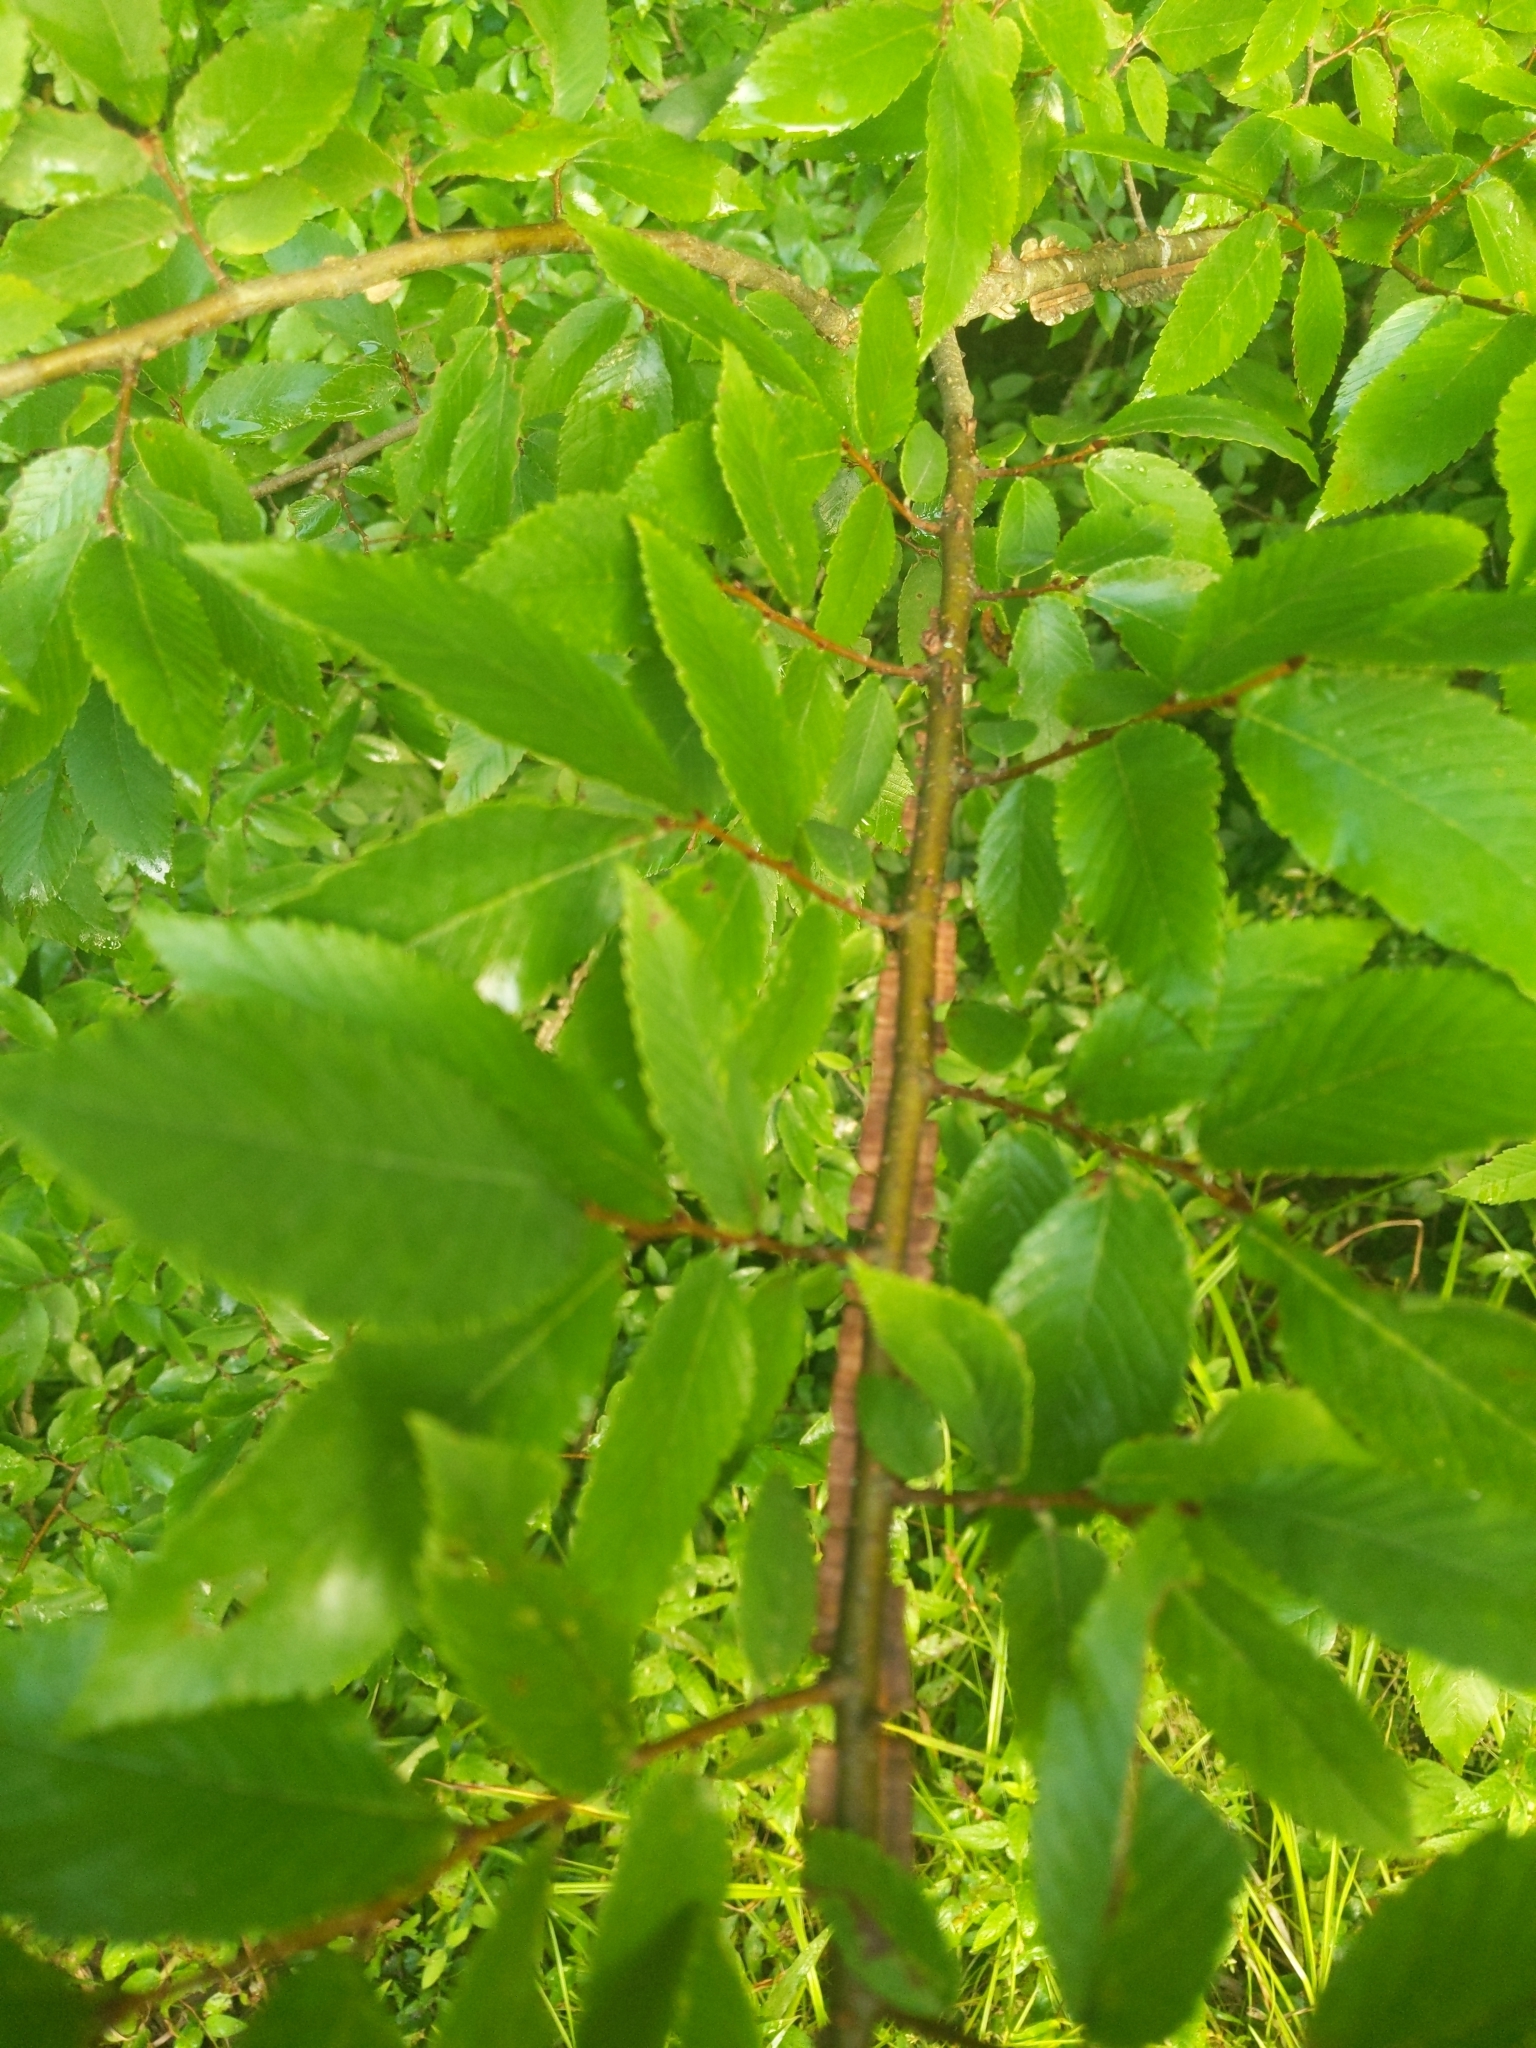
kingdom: Plantae
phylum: Tracheophyta
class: Magnoliopsida
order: Rosales
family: Ulmaceae
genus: Ulmus
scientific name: Ulmus alata
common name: Winged elm
